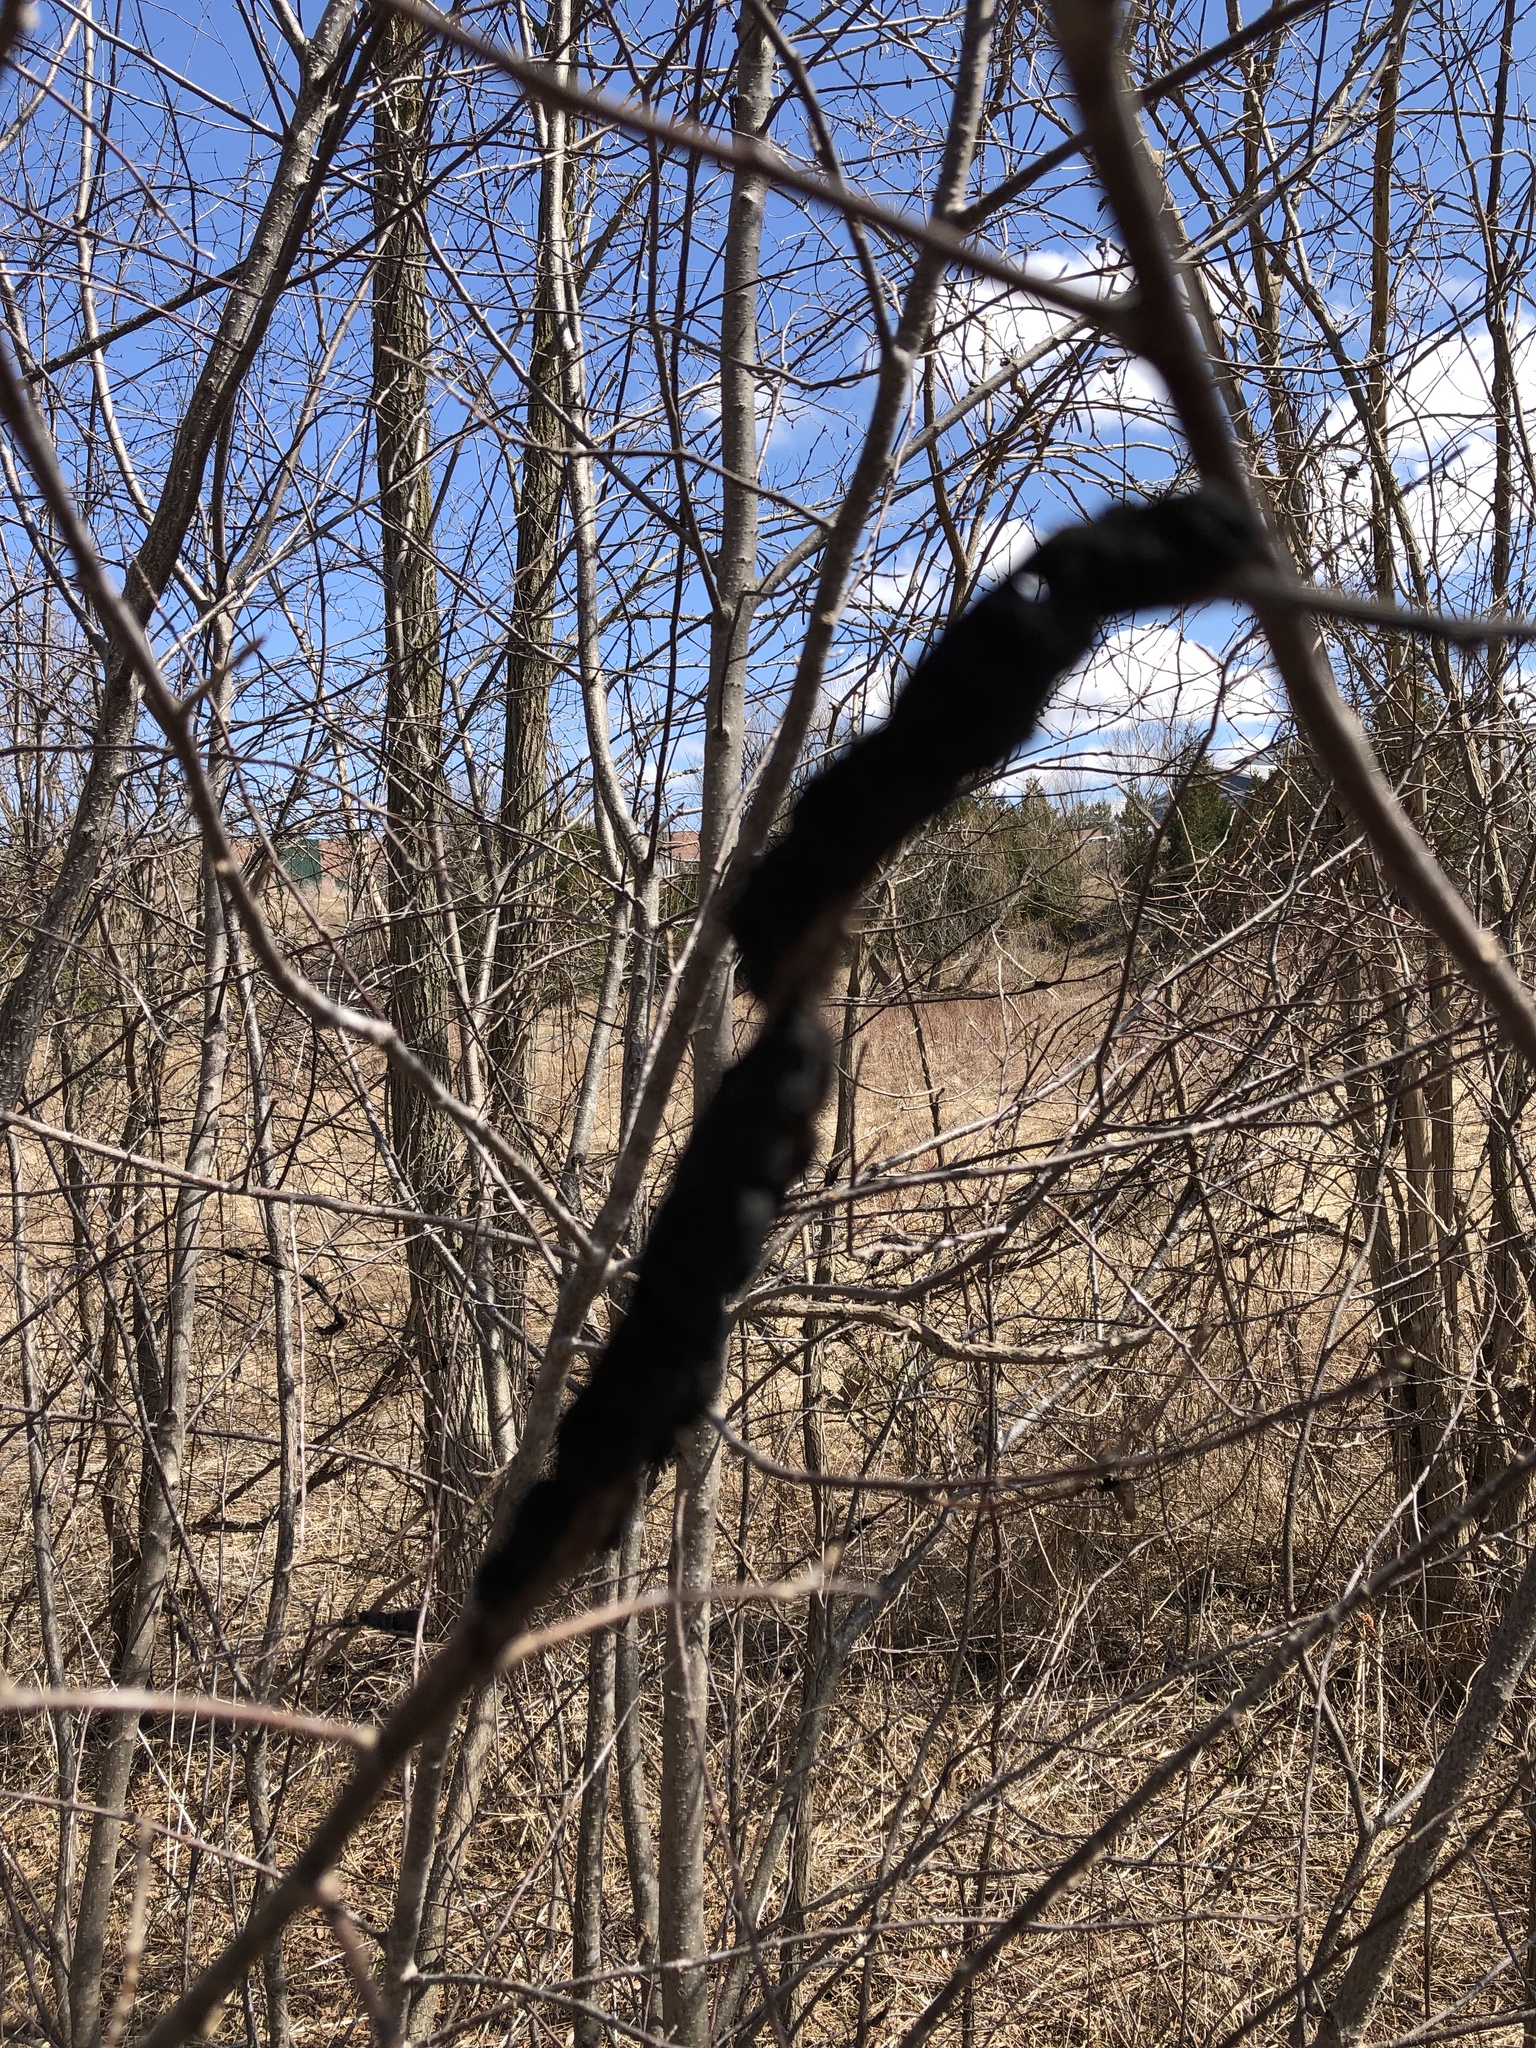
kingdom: Fungi
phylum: Ascomycota
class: Dothideomycetes
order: Venturiales
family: Venturiaceae
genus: Apiosporina
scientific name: Apiosporina morbosa
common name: Black knot
